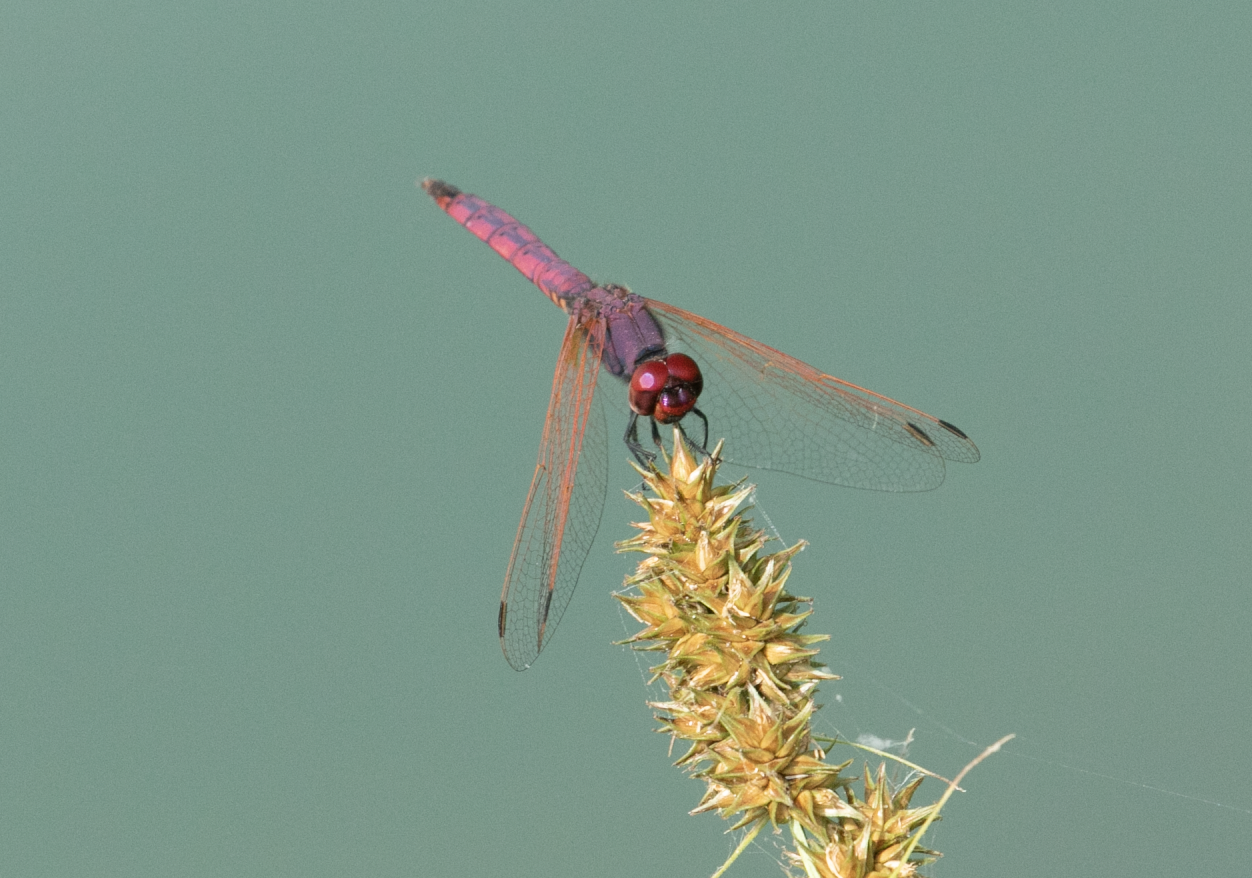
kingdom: Animalia
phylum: Arthropoda
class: Insecta
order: Odonata
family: Libellulidae
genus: Trithemis
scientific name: Trithemis annulata
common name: Violet dropwing
